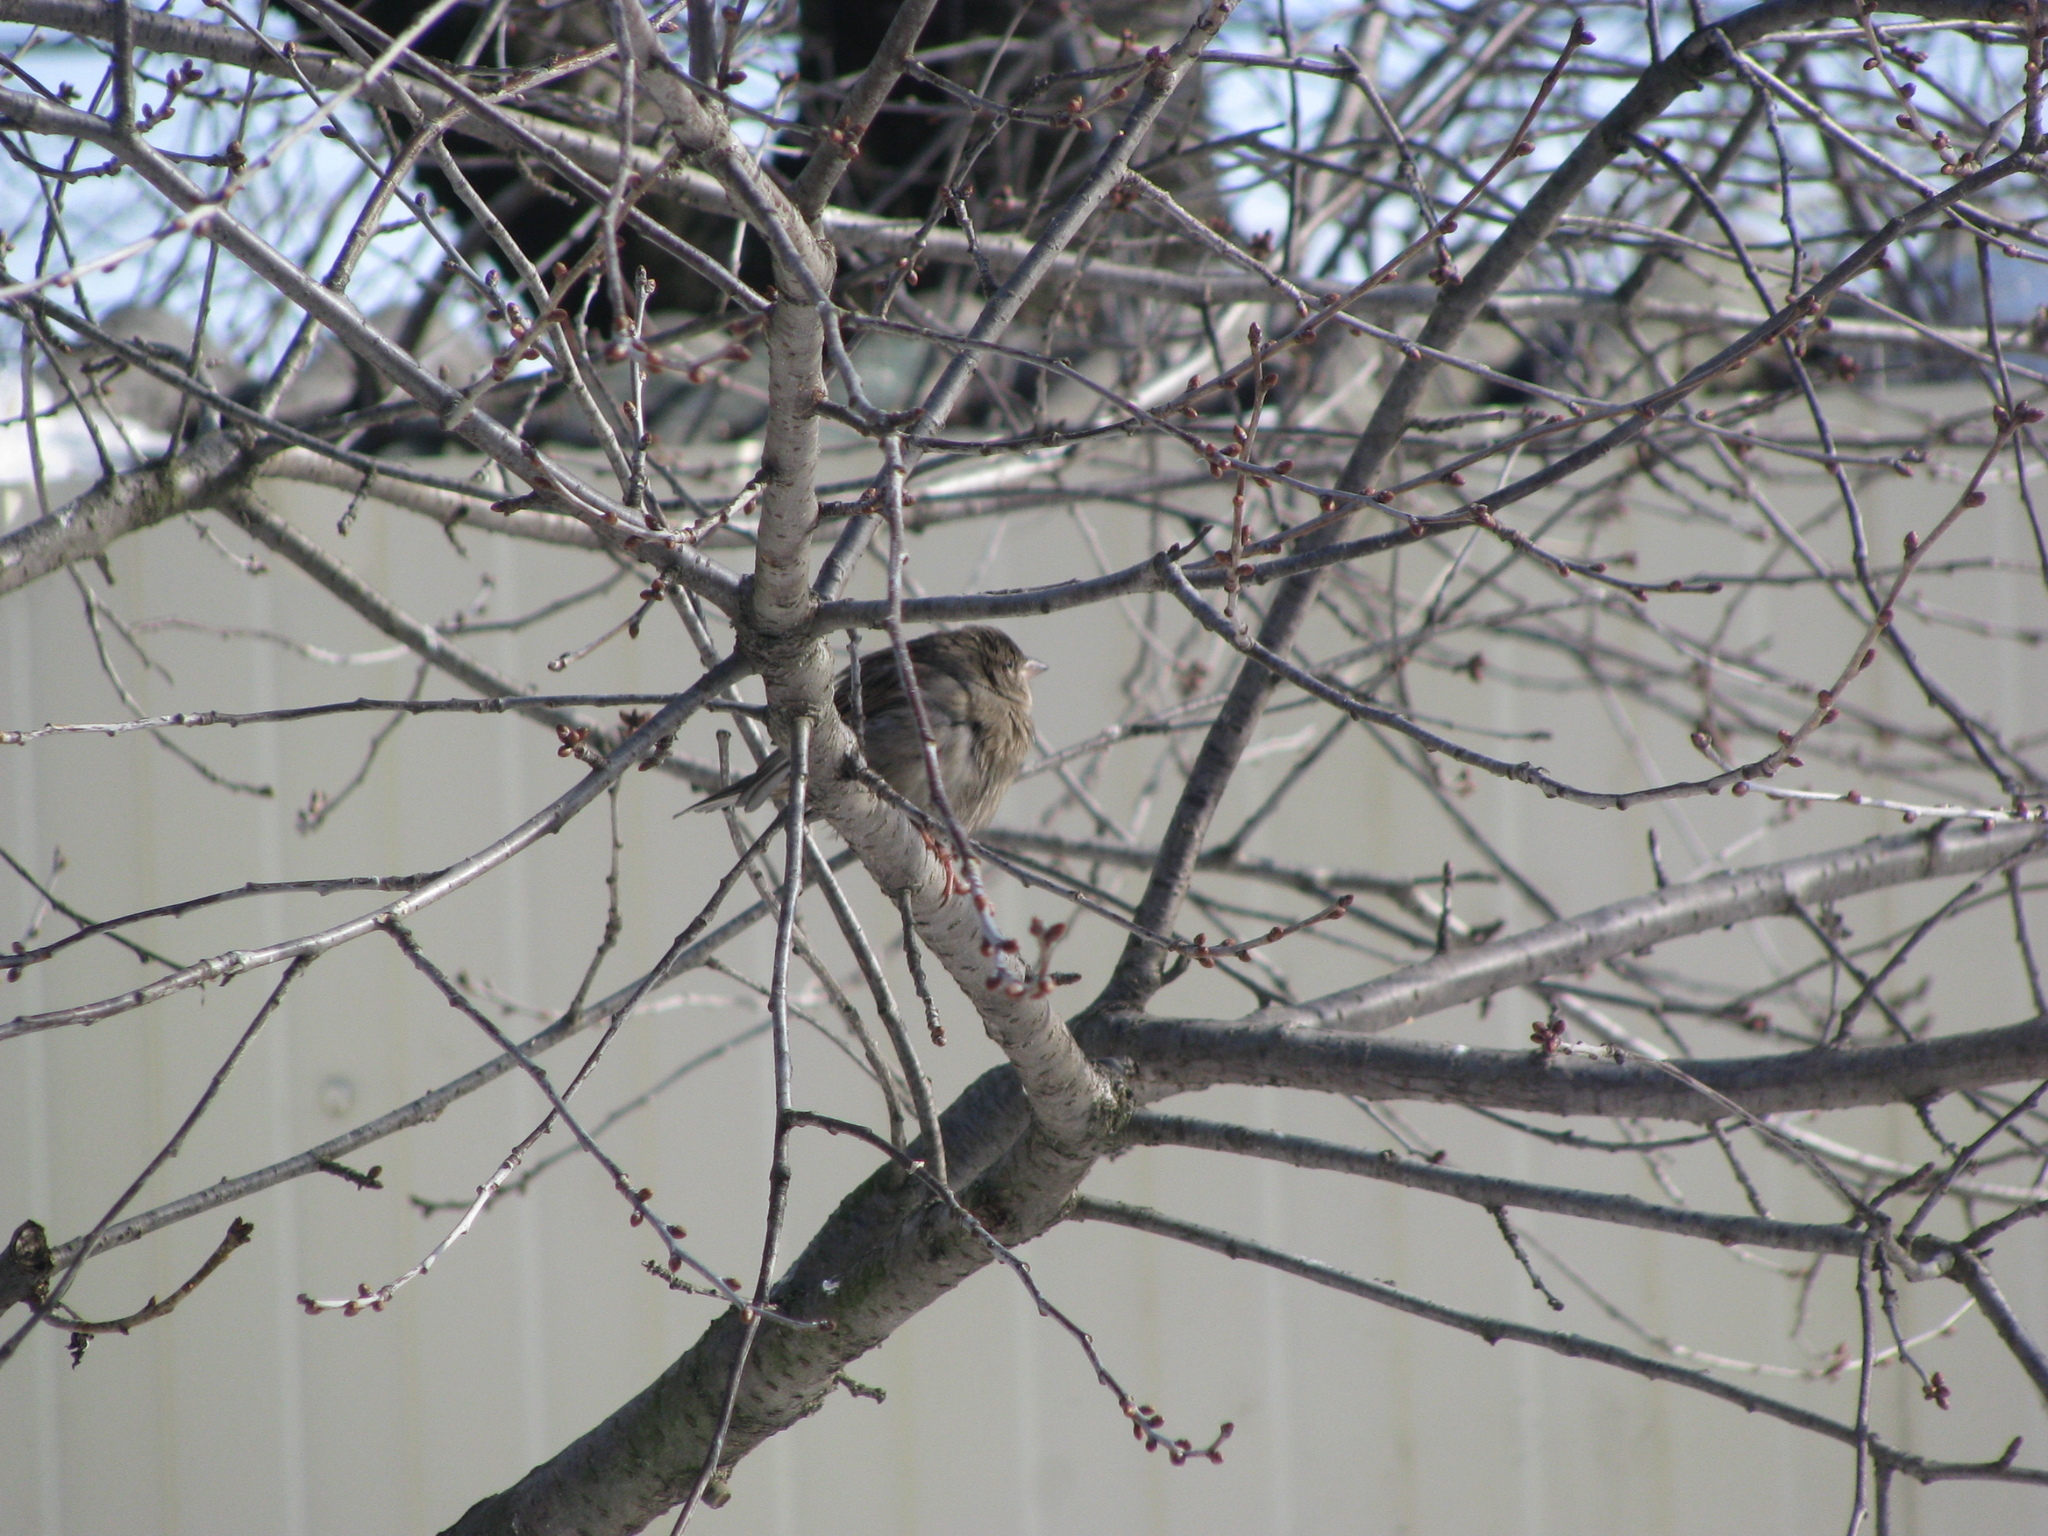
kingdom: Animalia
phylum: Chordata
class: Aves
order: Passeriformes
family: Passeridae
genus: Passer
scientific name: Passer domesticus
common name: House sparrow
